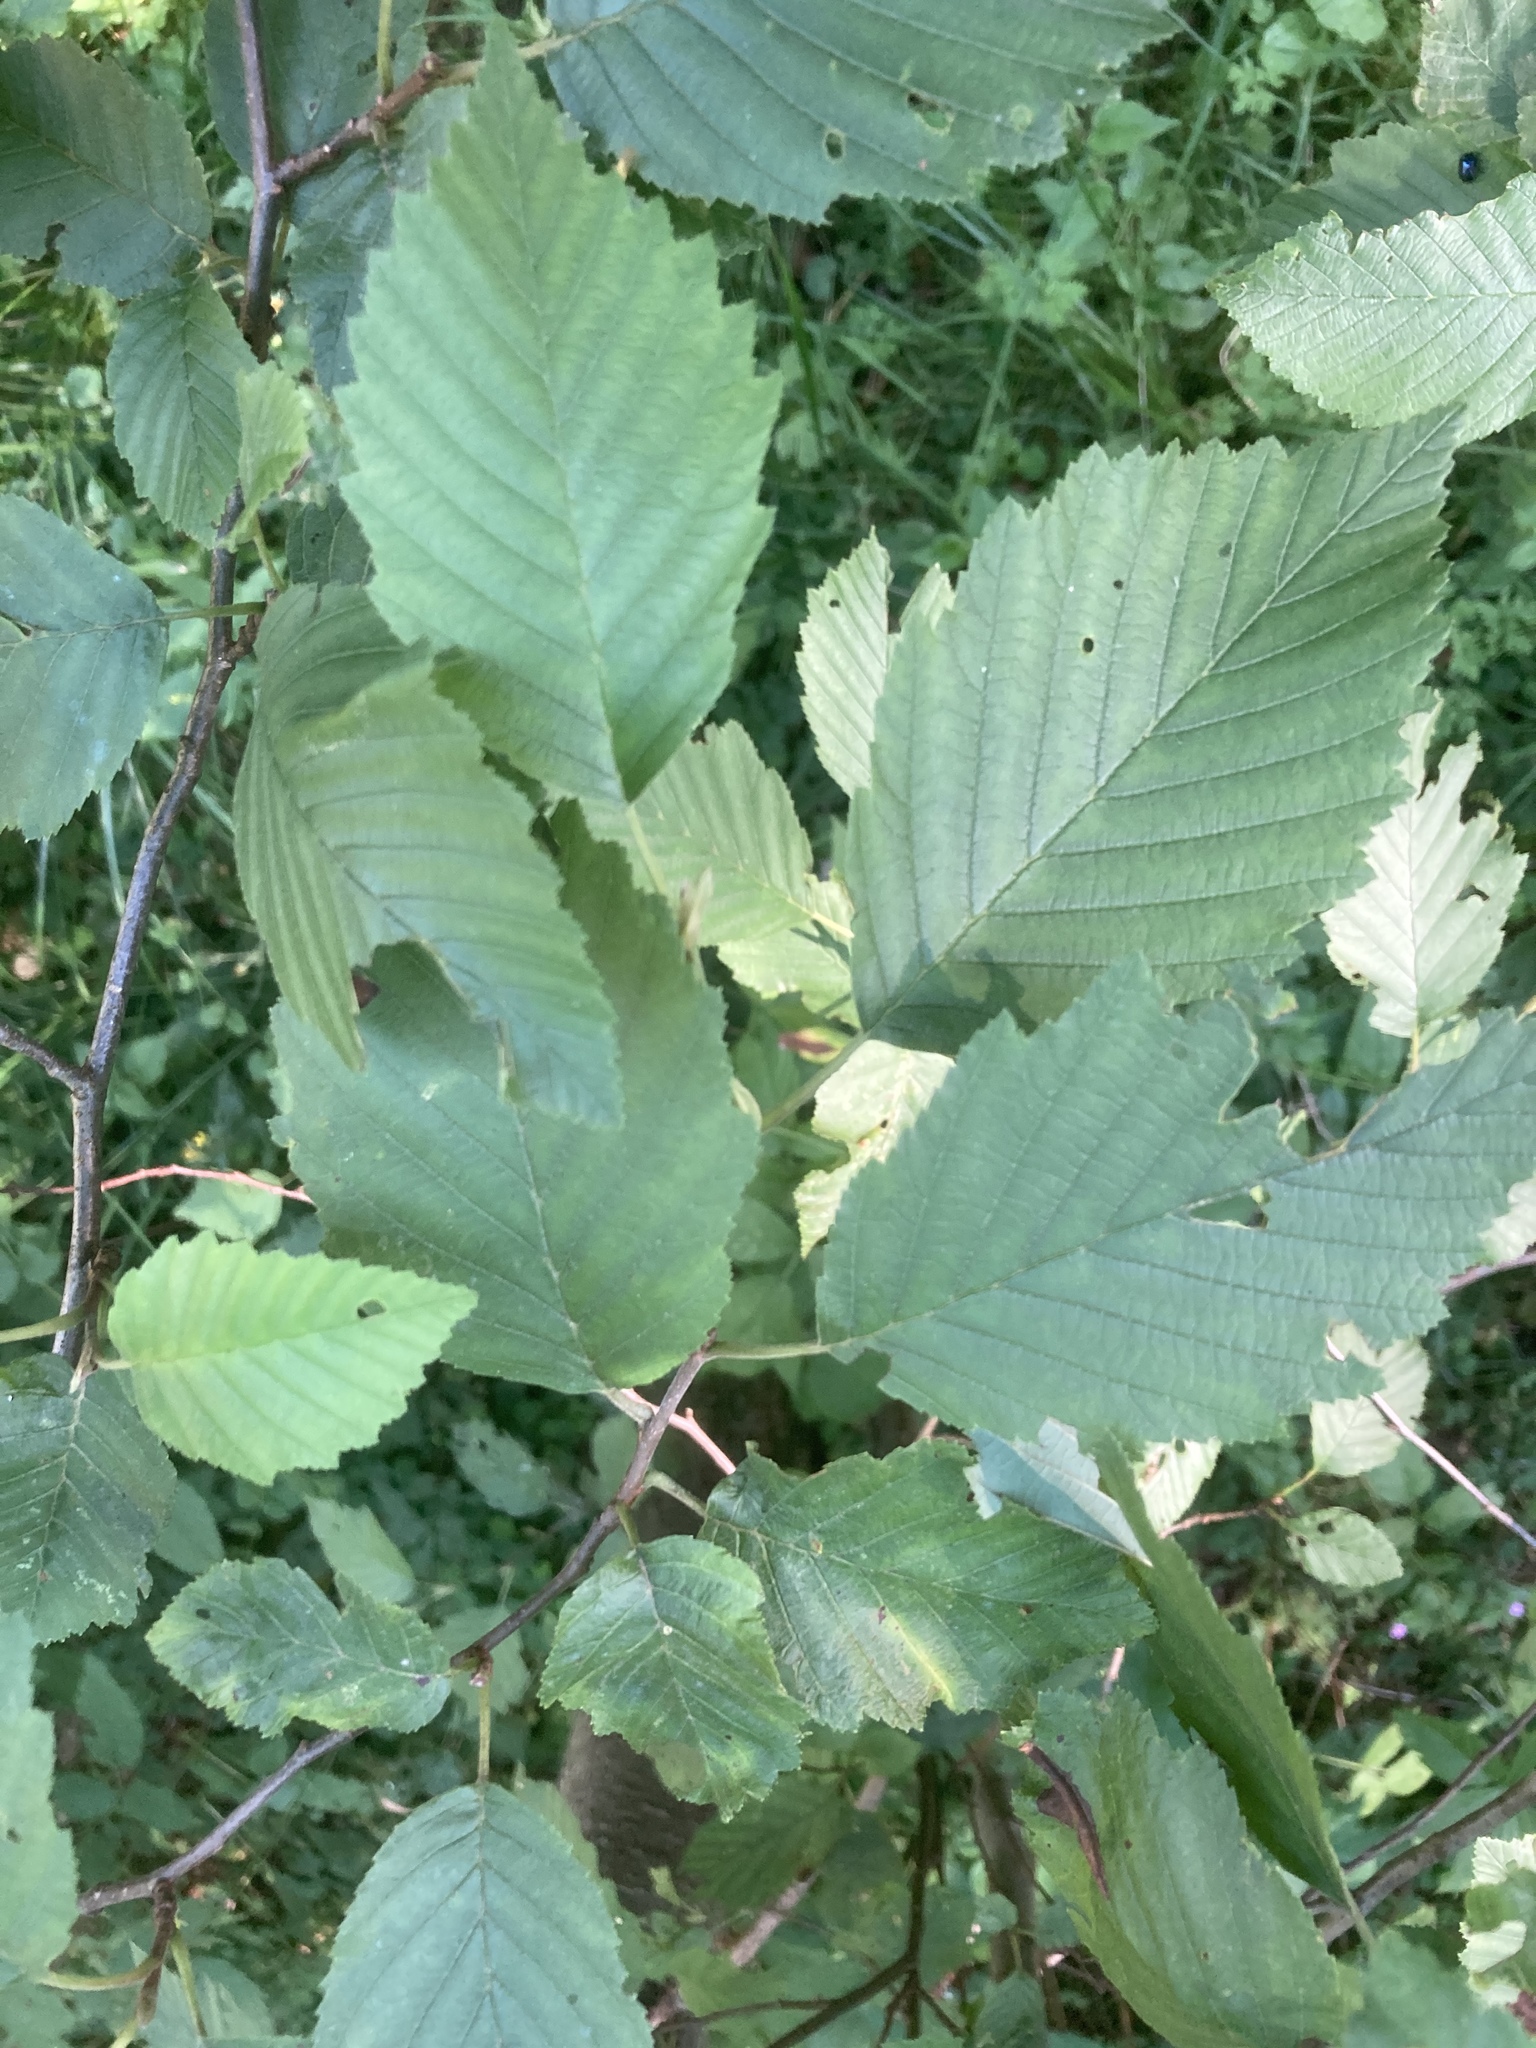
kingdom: Plantae
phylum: Tracheophyta
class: Magnoliopsida
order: Fagales
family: Betulaceae
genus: Alnus
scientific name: Alnus incana
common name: Grey alder
